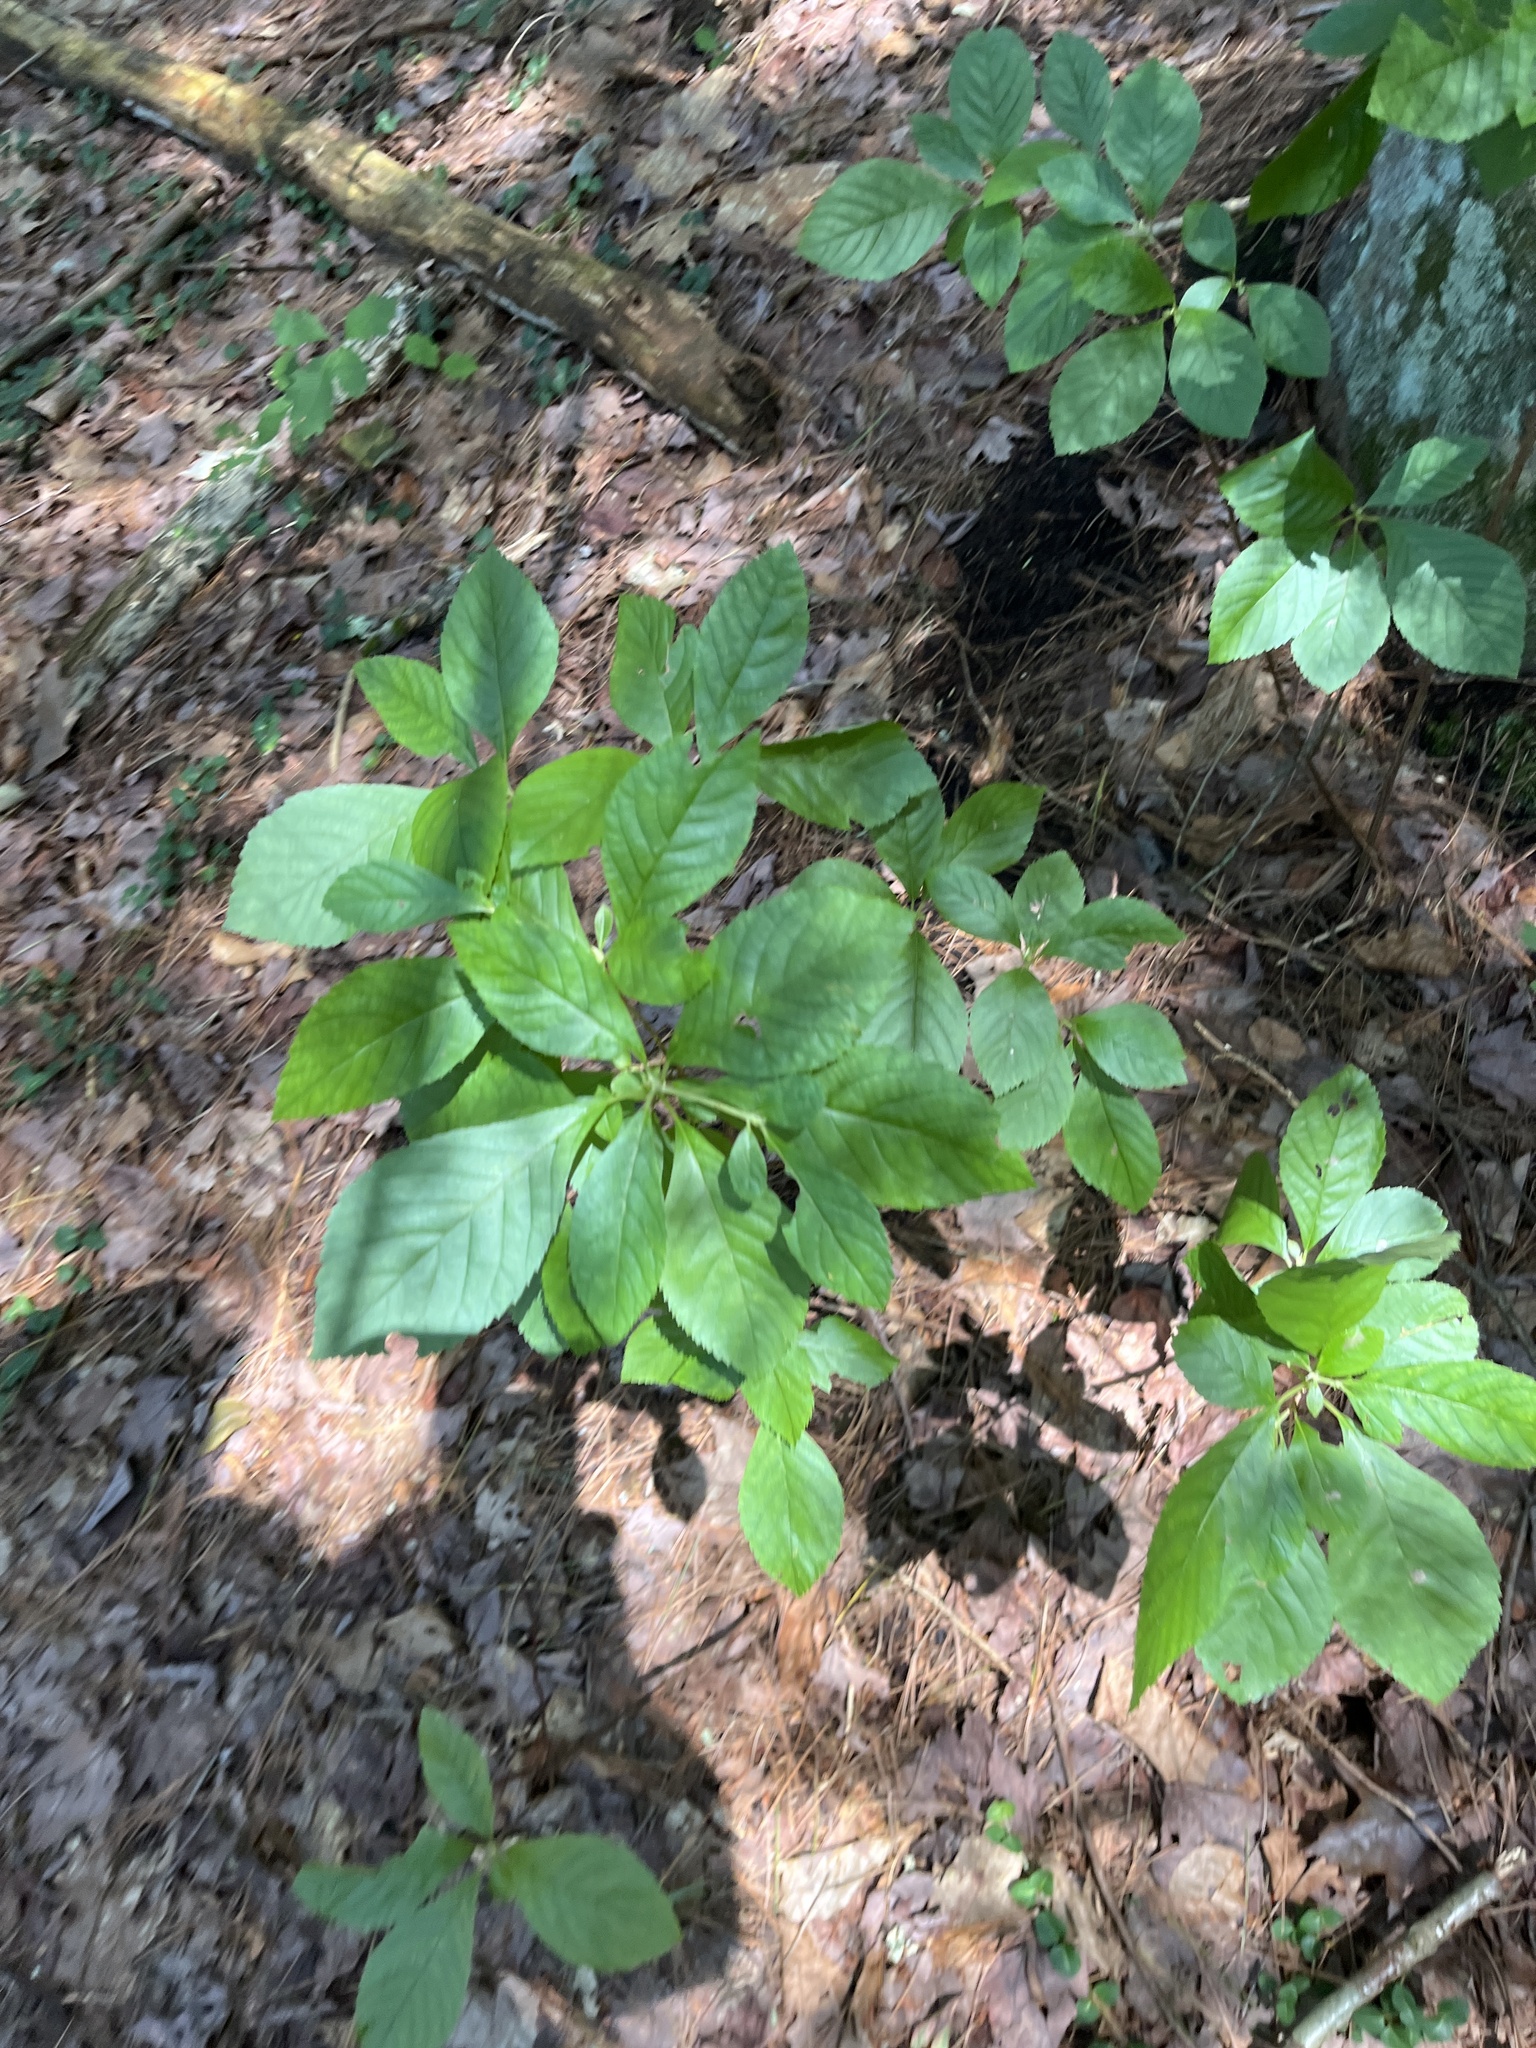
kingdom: Plantae
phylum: Tracheophyta
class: Magnoliopsida
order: Ericales
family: Clethraceae
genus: Clethra
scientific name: Clethra alnifolia
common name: Sweet pepperbush
